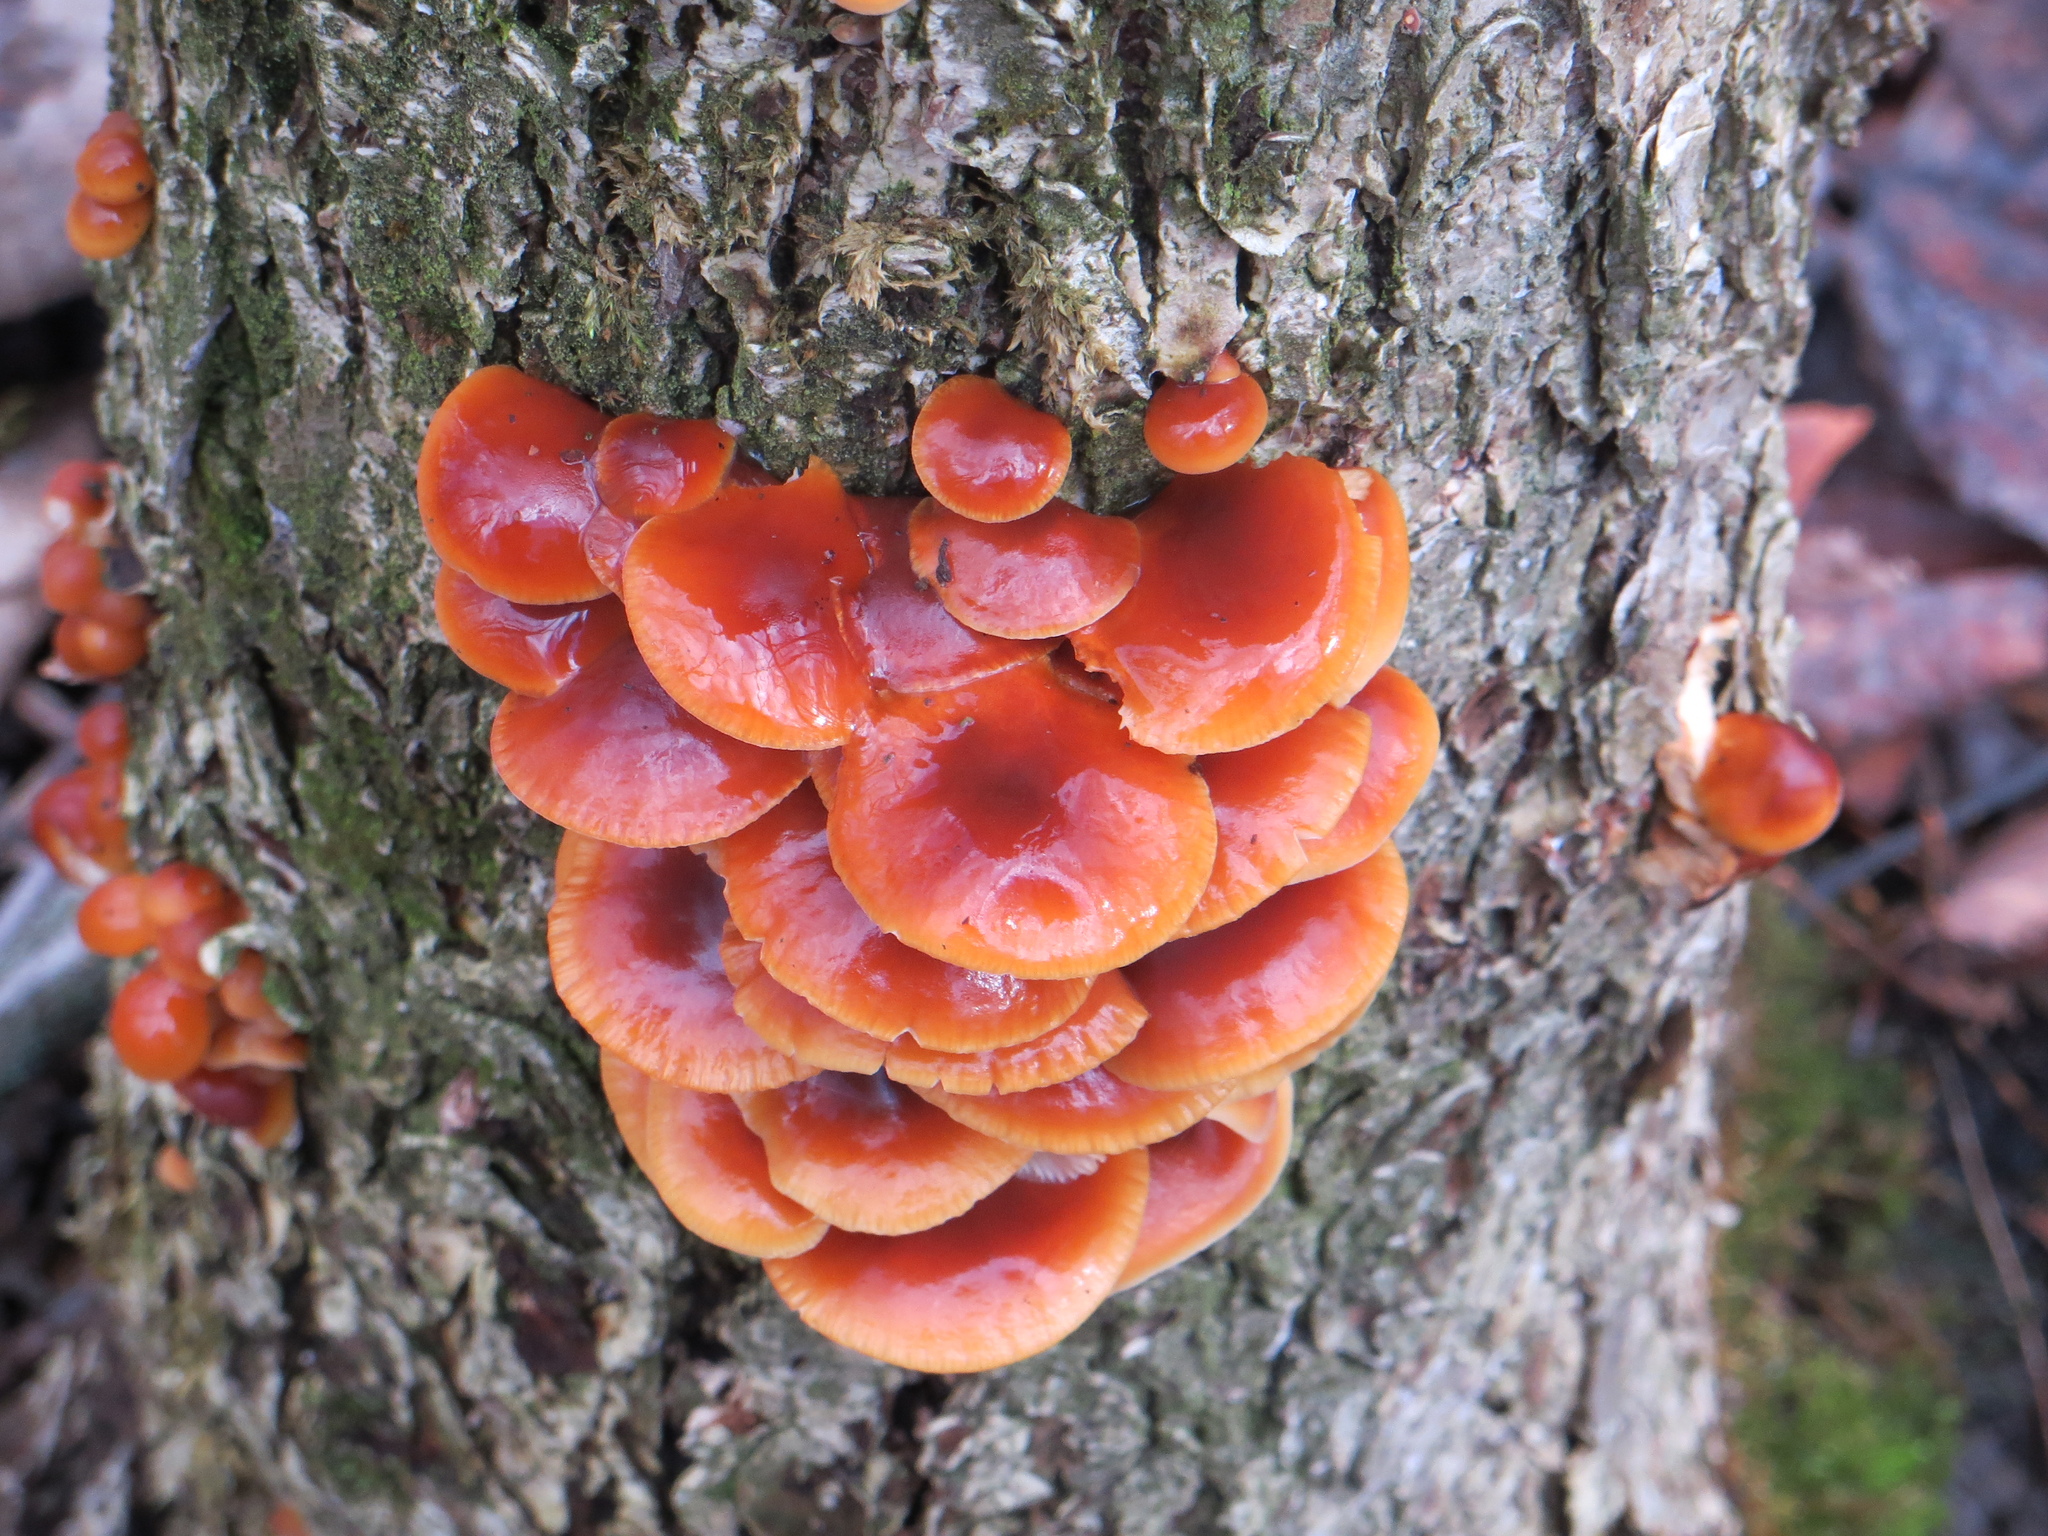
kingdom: Fungi
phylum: Basidiomycota
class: Agaricomycetes
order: Agaricales
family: Physalacriaceae
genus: Flammulina
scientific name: Flammulina velutipes
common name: Velvet shank
